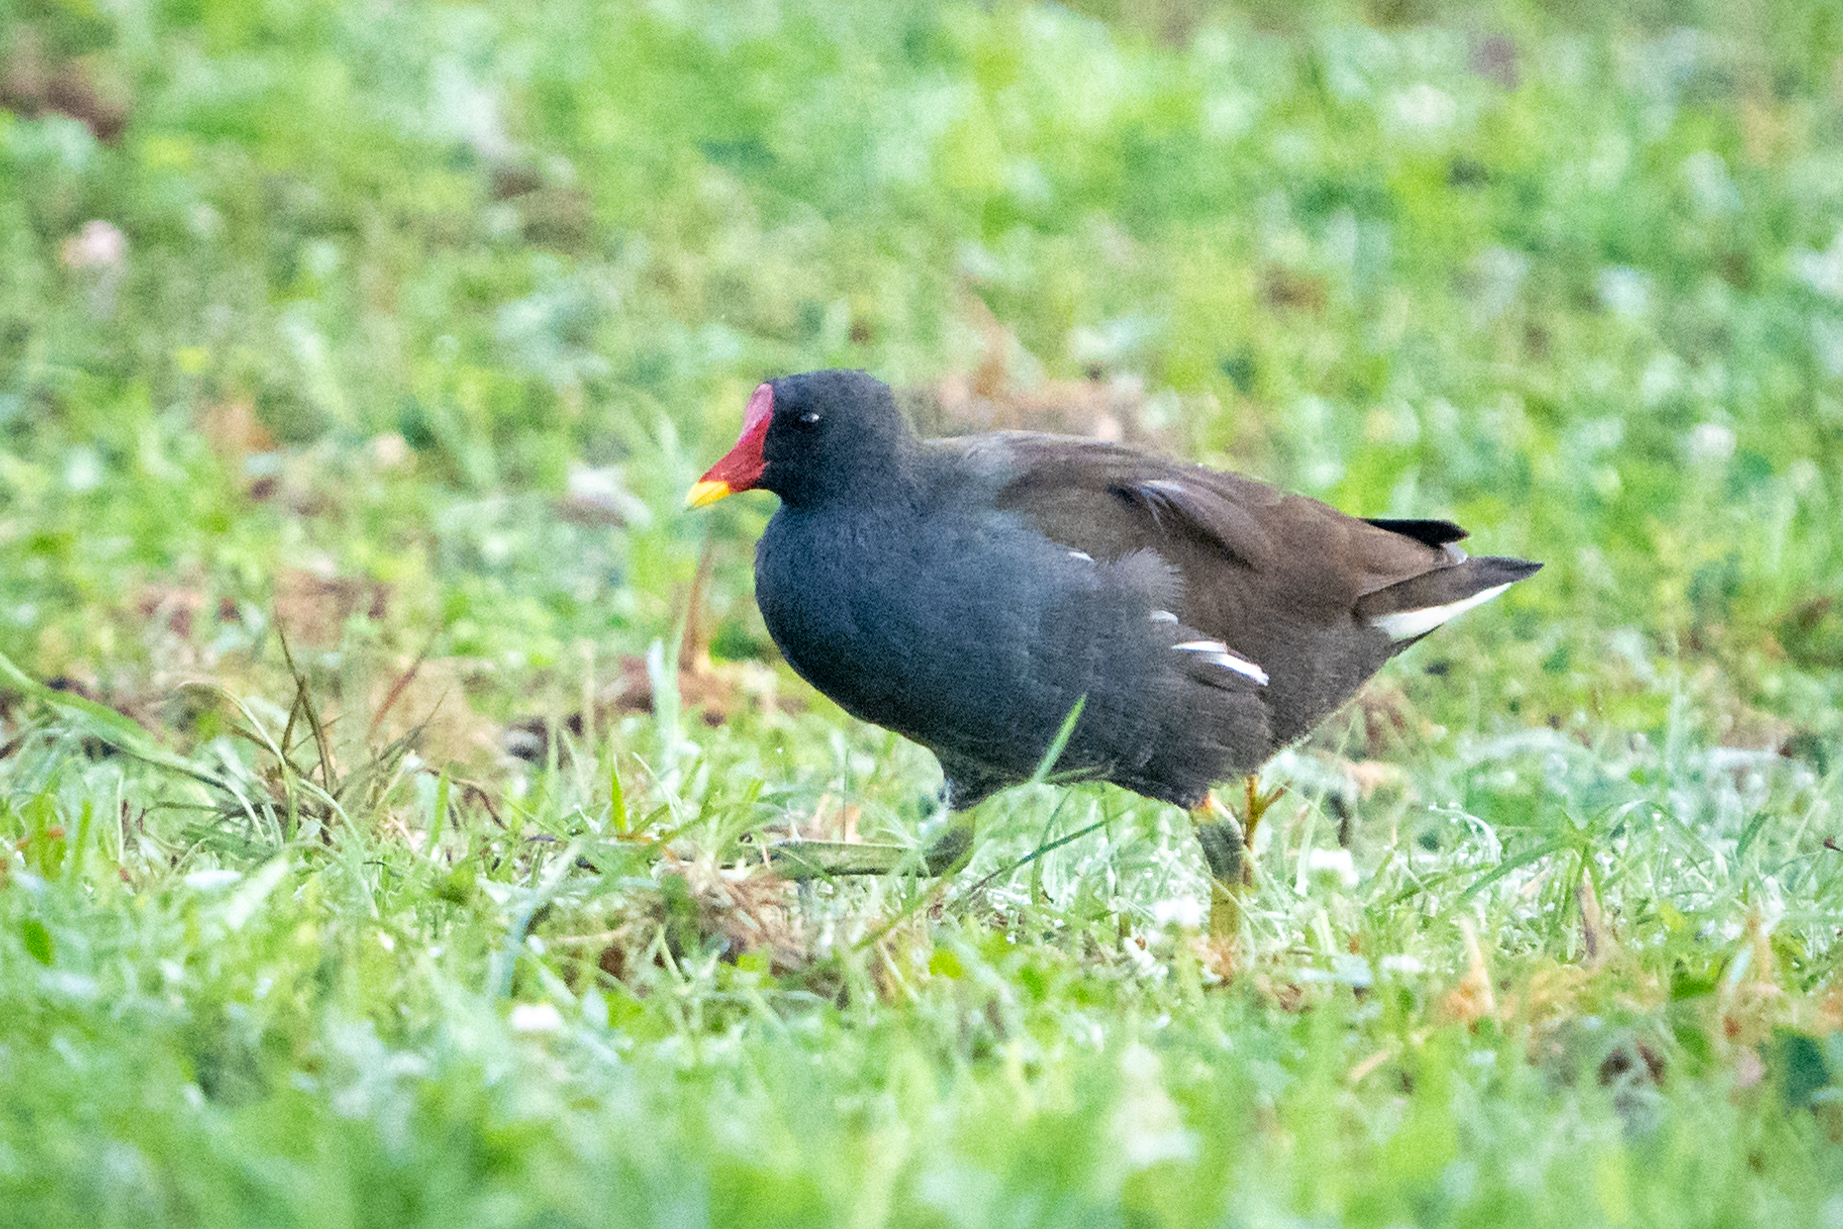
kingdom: Animalia
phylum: Chordata
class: Aves
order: Gruiformes
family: Rallidae
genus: Gallinula
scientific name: Gallinula chloropus
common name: Common moorhen
